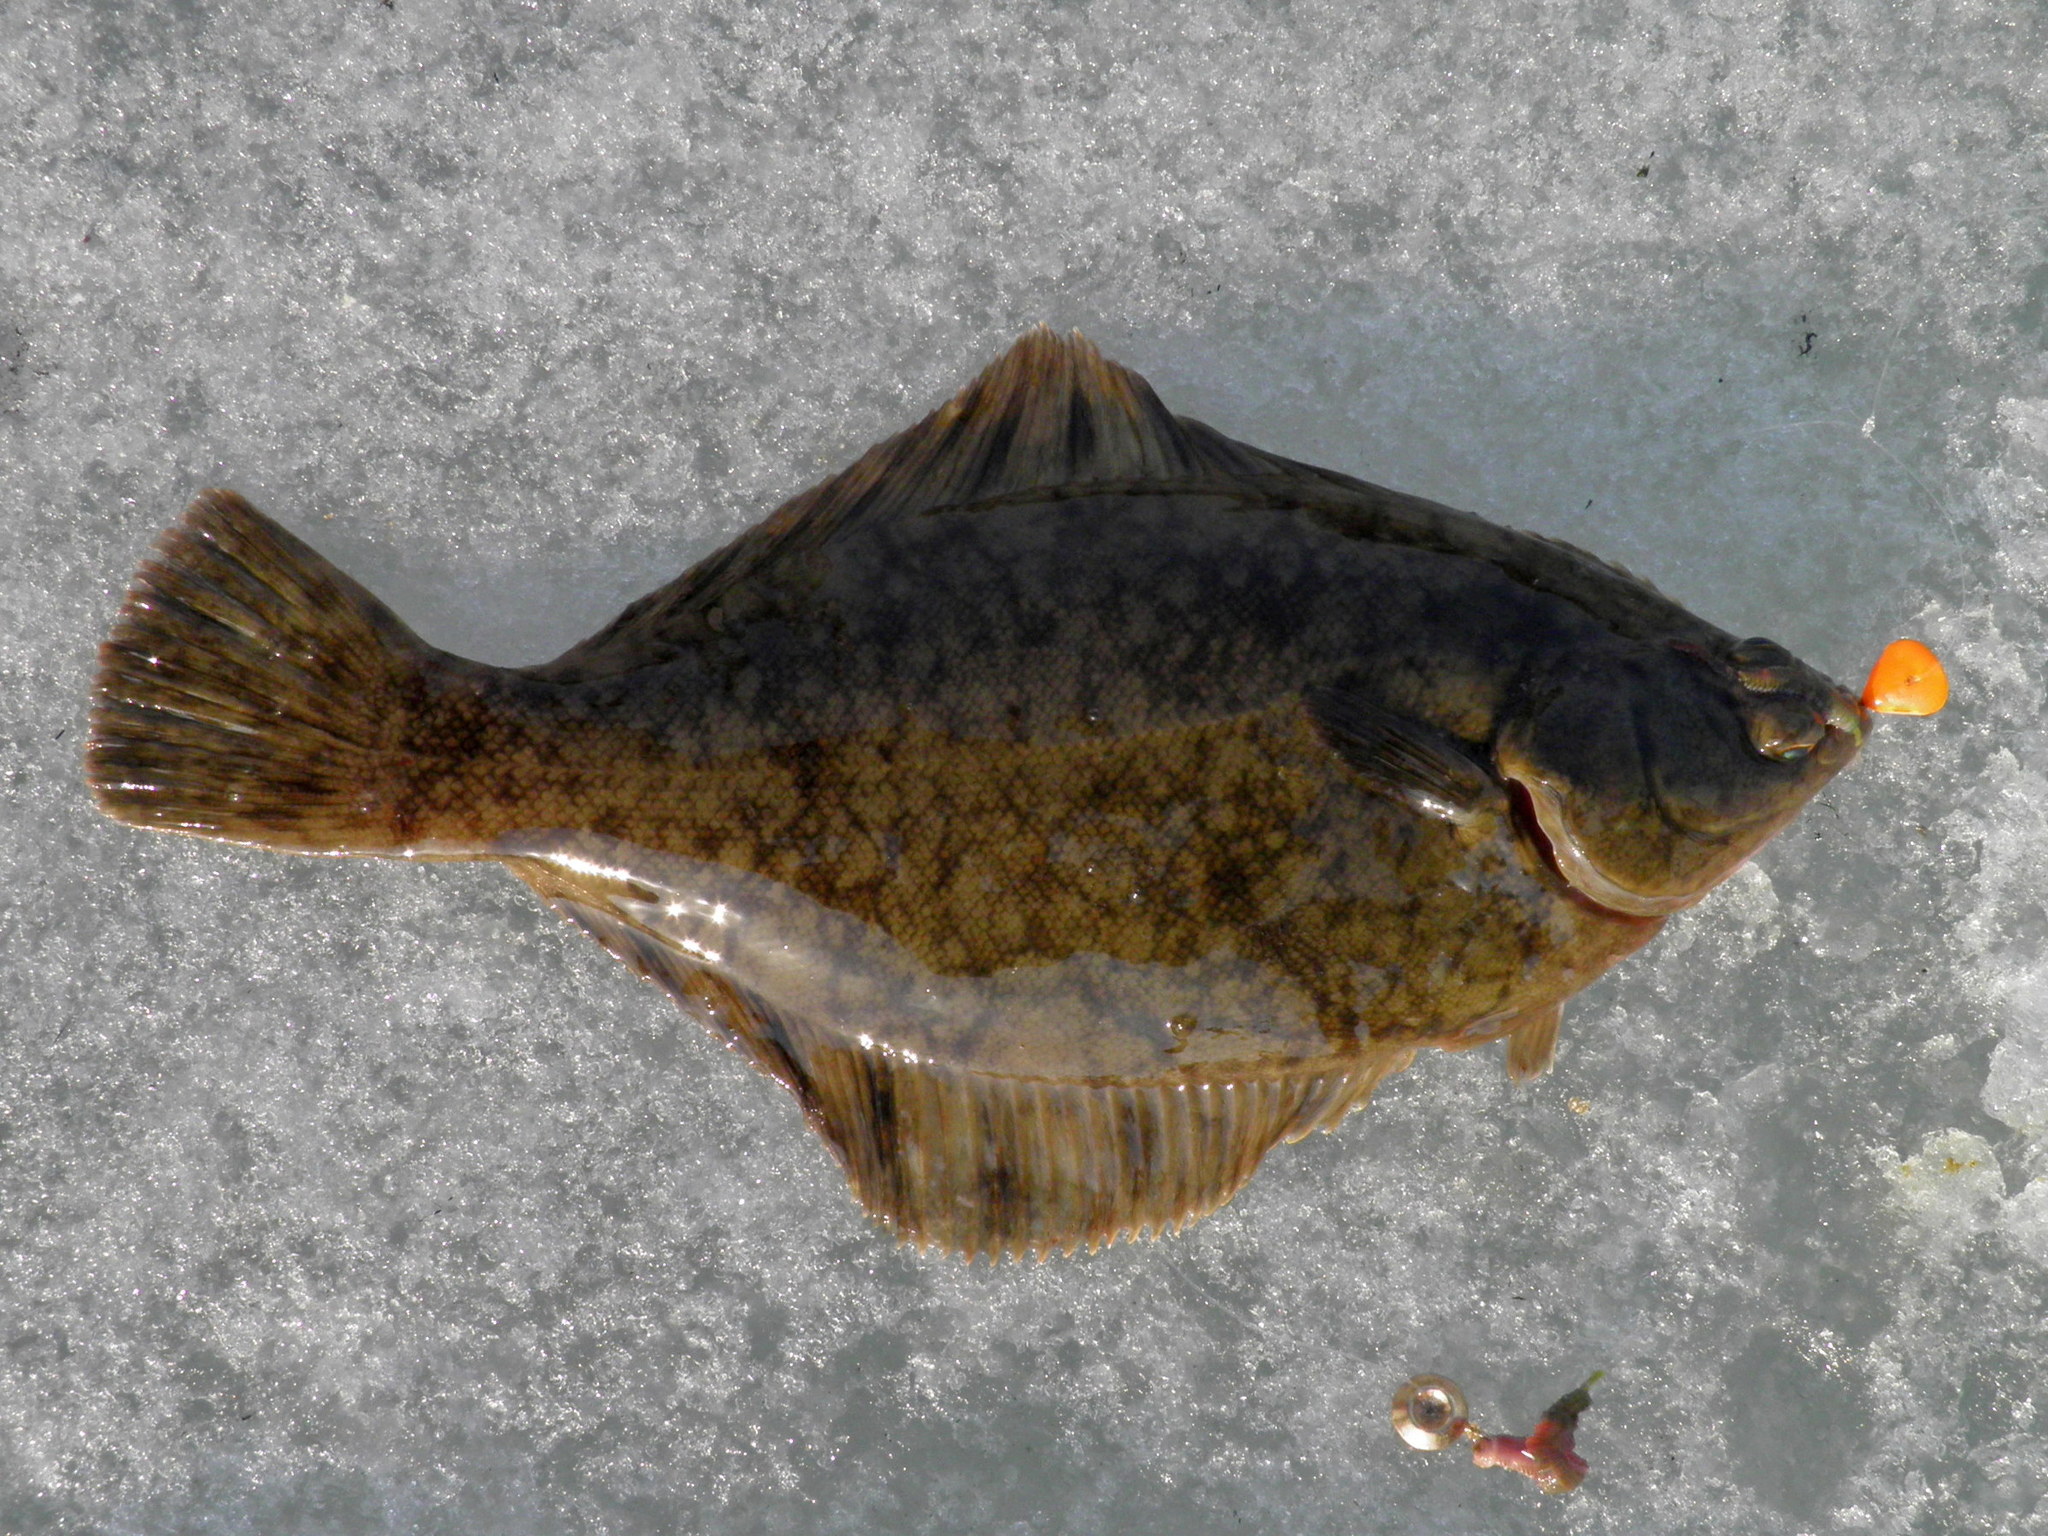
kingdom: Animalia
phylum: Chordata
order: Pleuronectiformes
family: Pleuronectidae
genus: Pseudopleuronectes
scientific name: Pseudopleuronectes obscurus
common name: Black plaice
